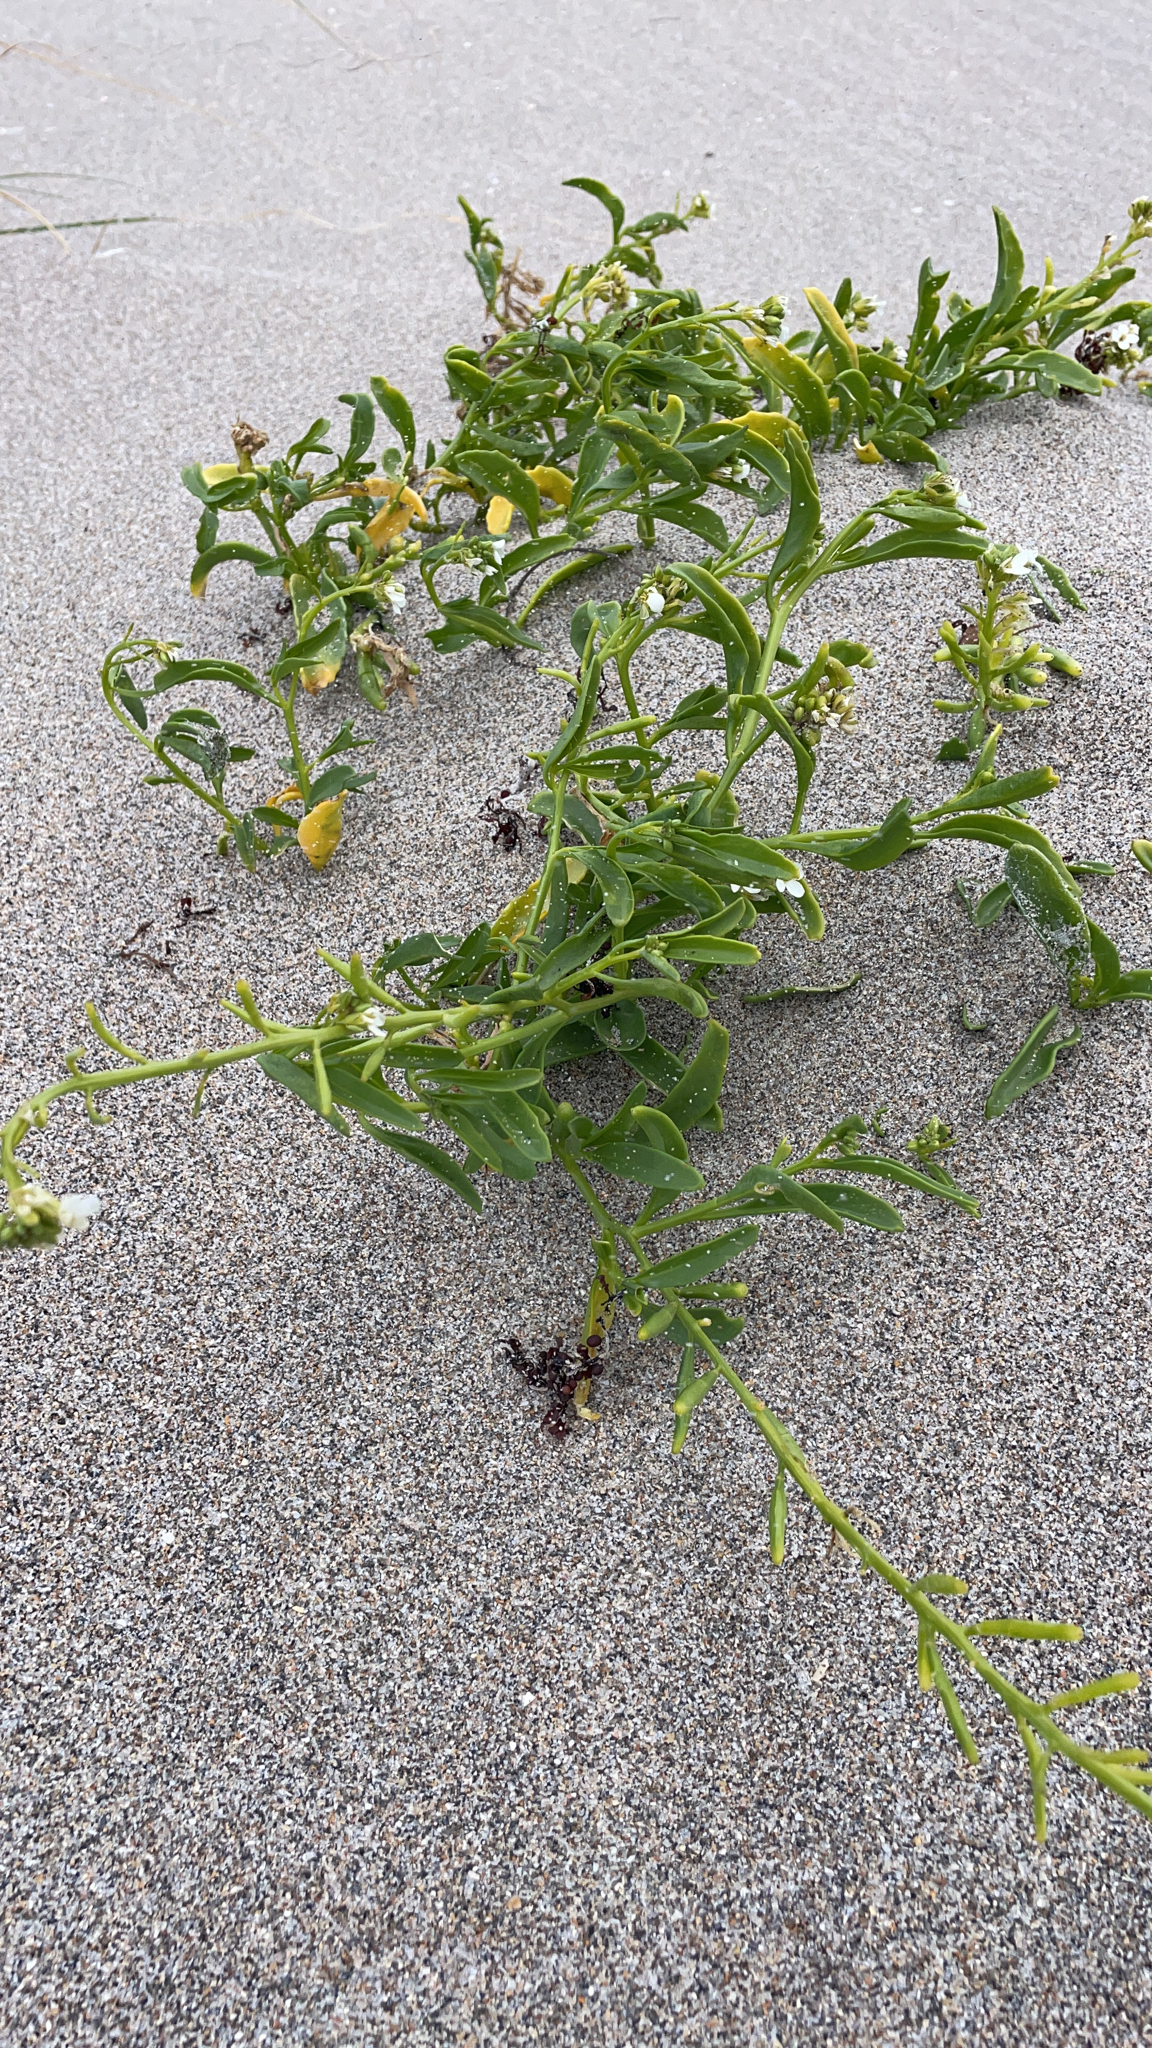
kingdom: Plantae
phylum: Tracheophyta
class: Magnoliopsida
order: Brassicales
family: Brassicaceae
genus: Cakile
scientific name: Cakile lanceolata
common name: Sea rocket
